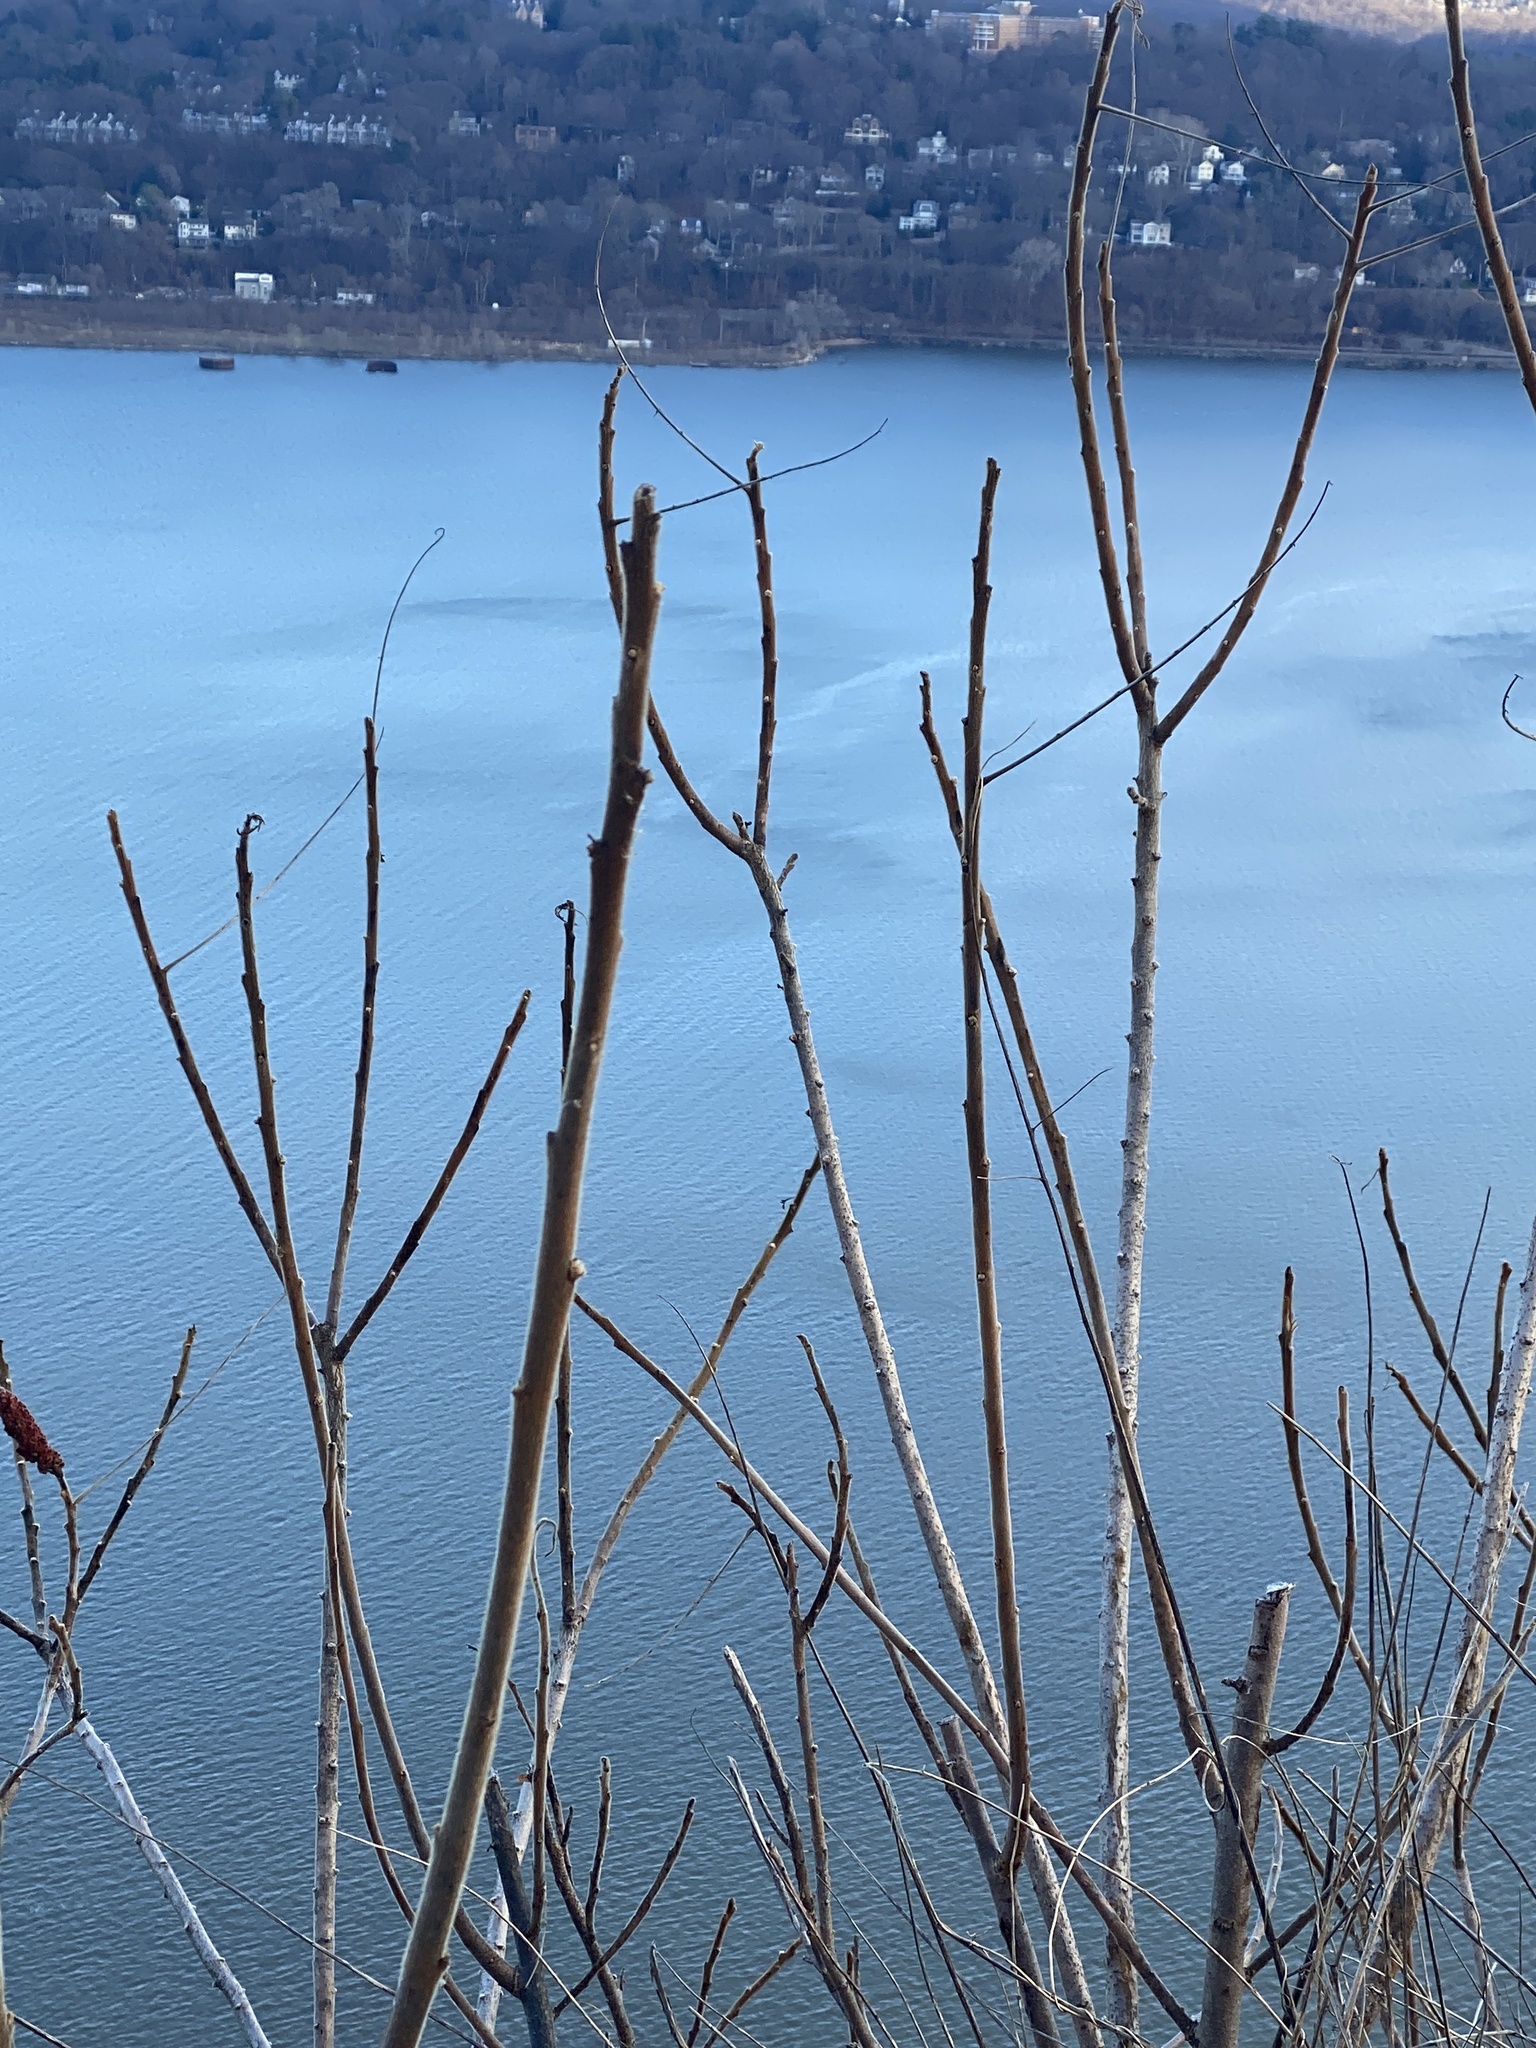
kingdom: Plantae
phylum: Tracheophyta
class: Magnoliopsida
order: Sapindales
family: Anacardiaceae
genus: Rhus
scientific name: Rhus typhina
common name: Staghorn sumac
